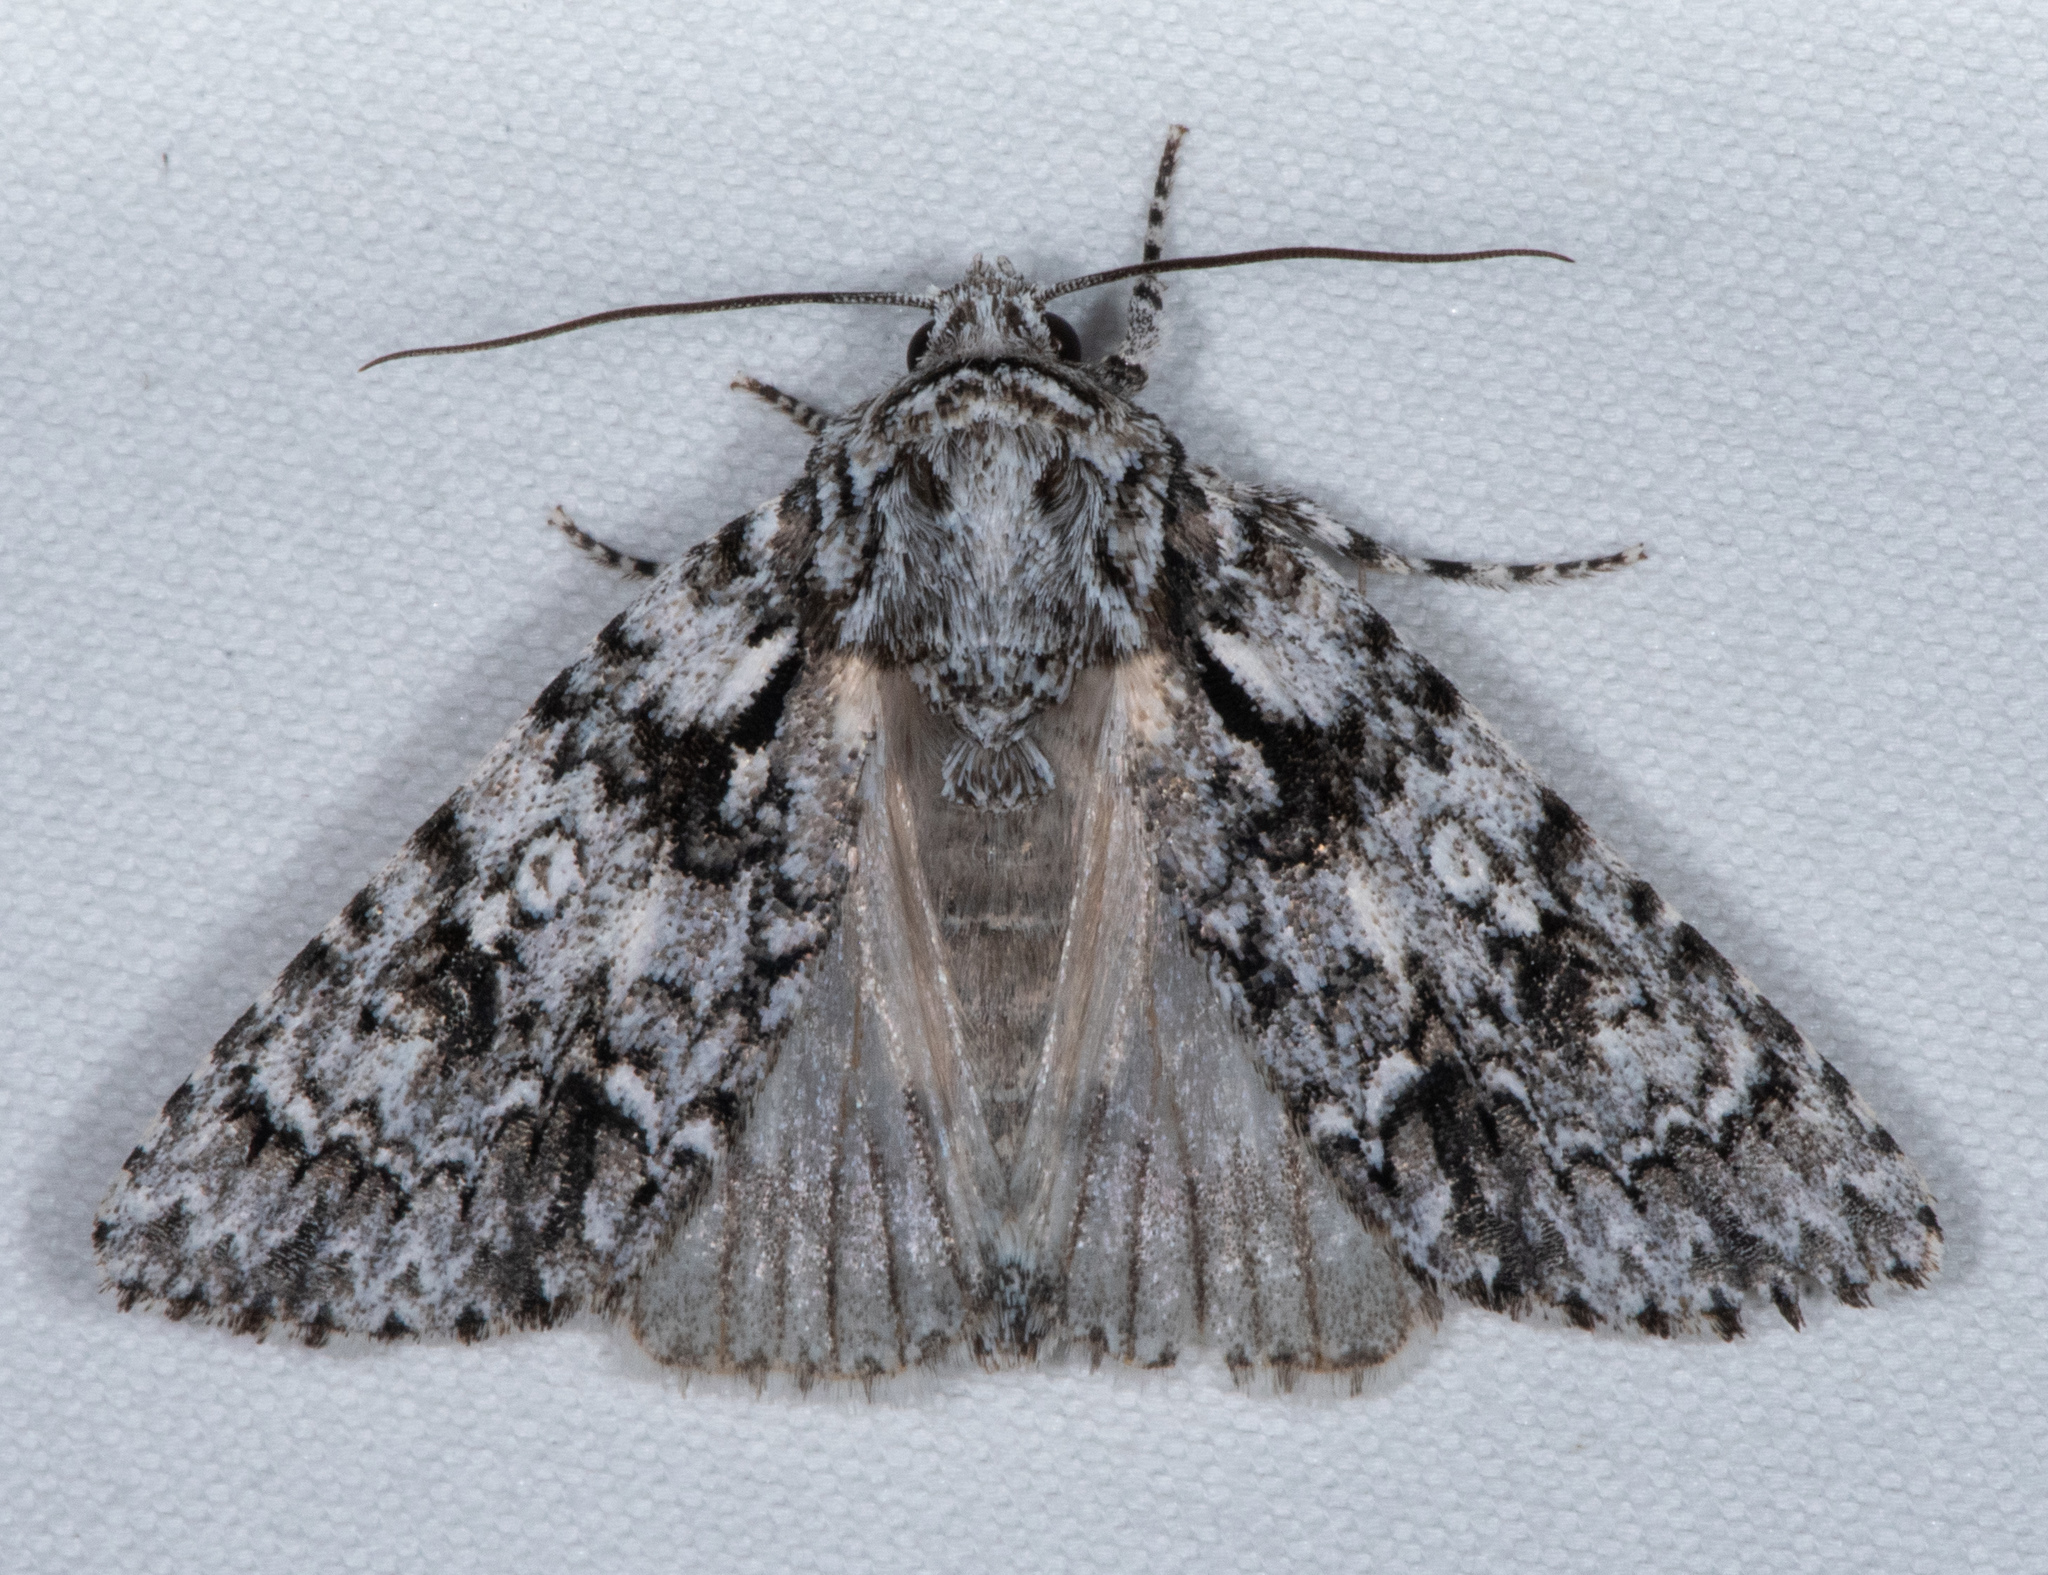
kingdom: Animalia
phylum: Arthropoda
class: Insecta
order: Lepidoptera
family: Noctuidae
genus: Acronicta
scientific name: Acronicta marmorata
